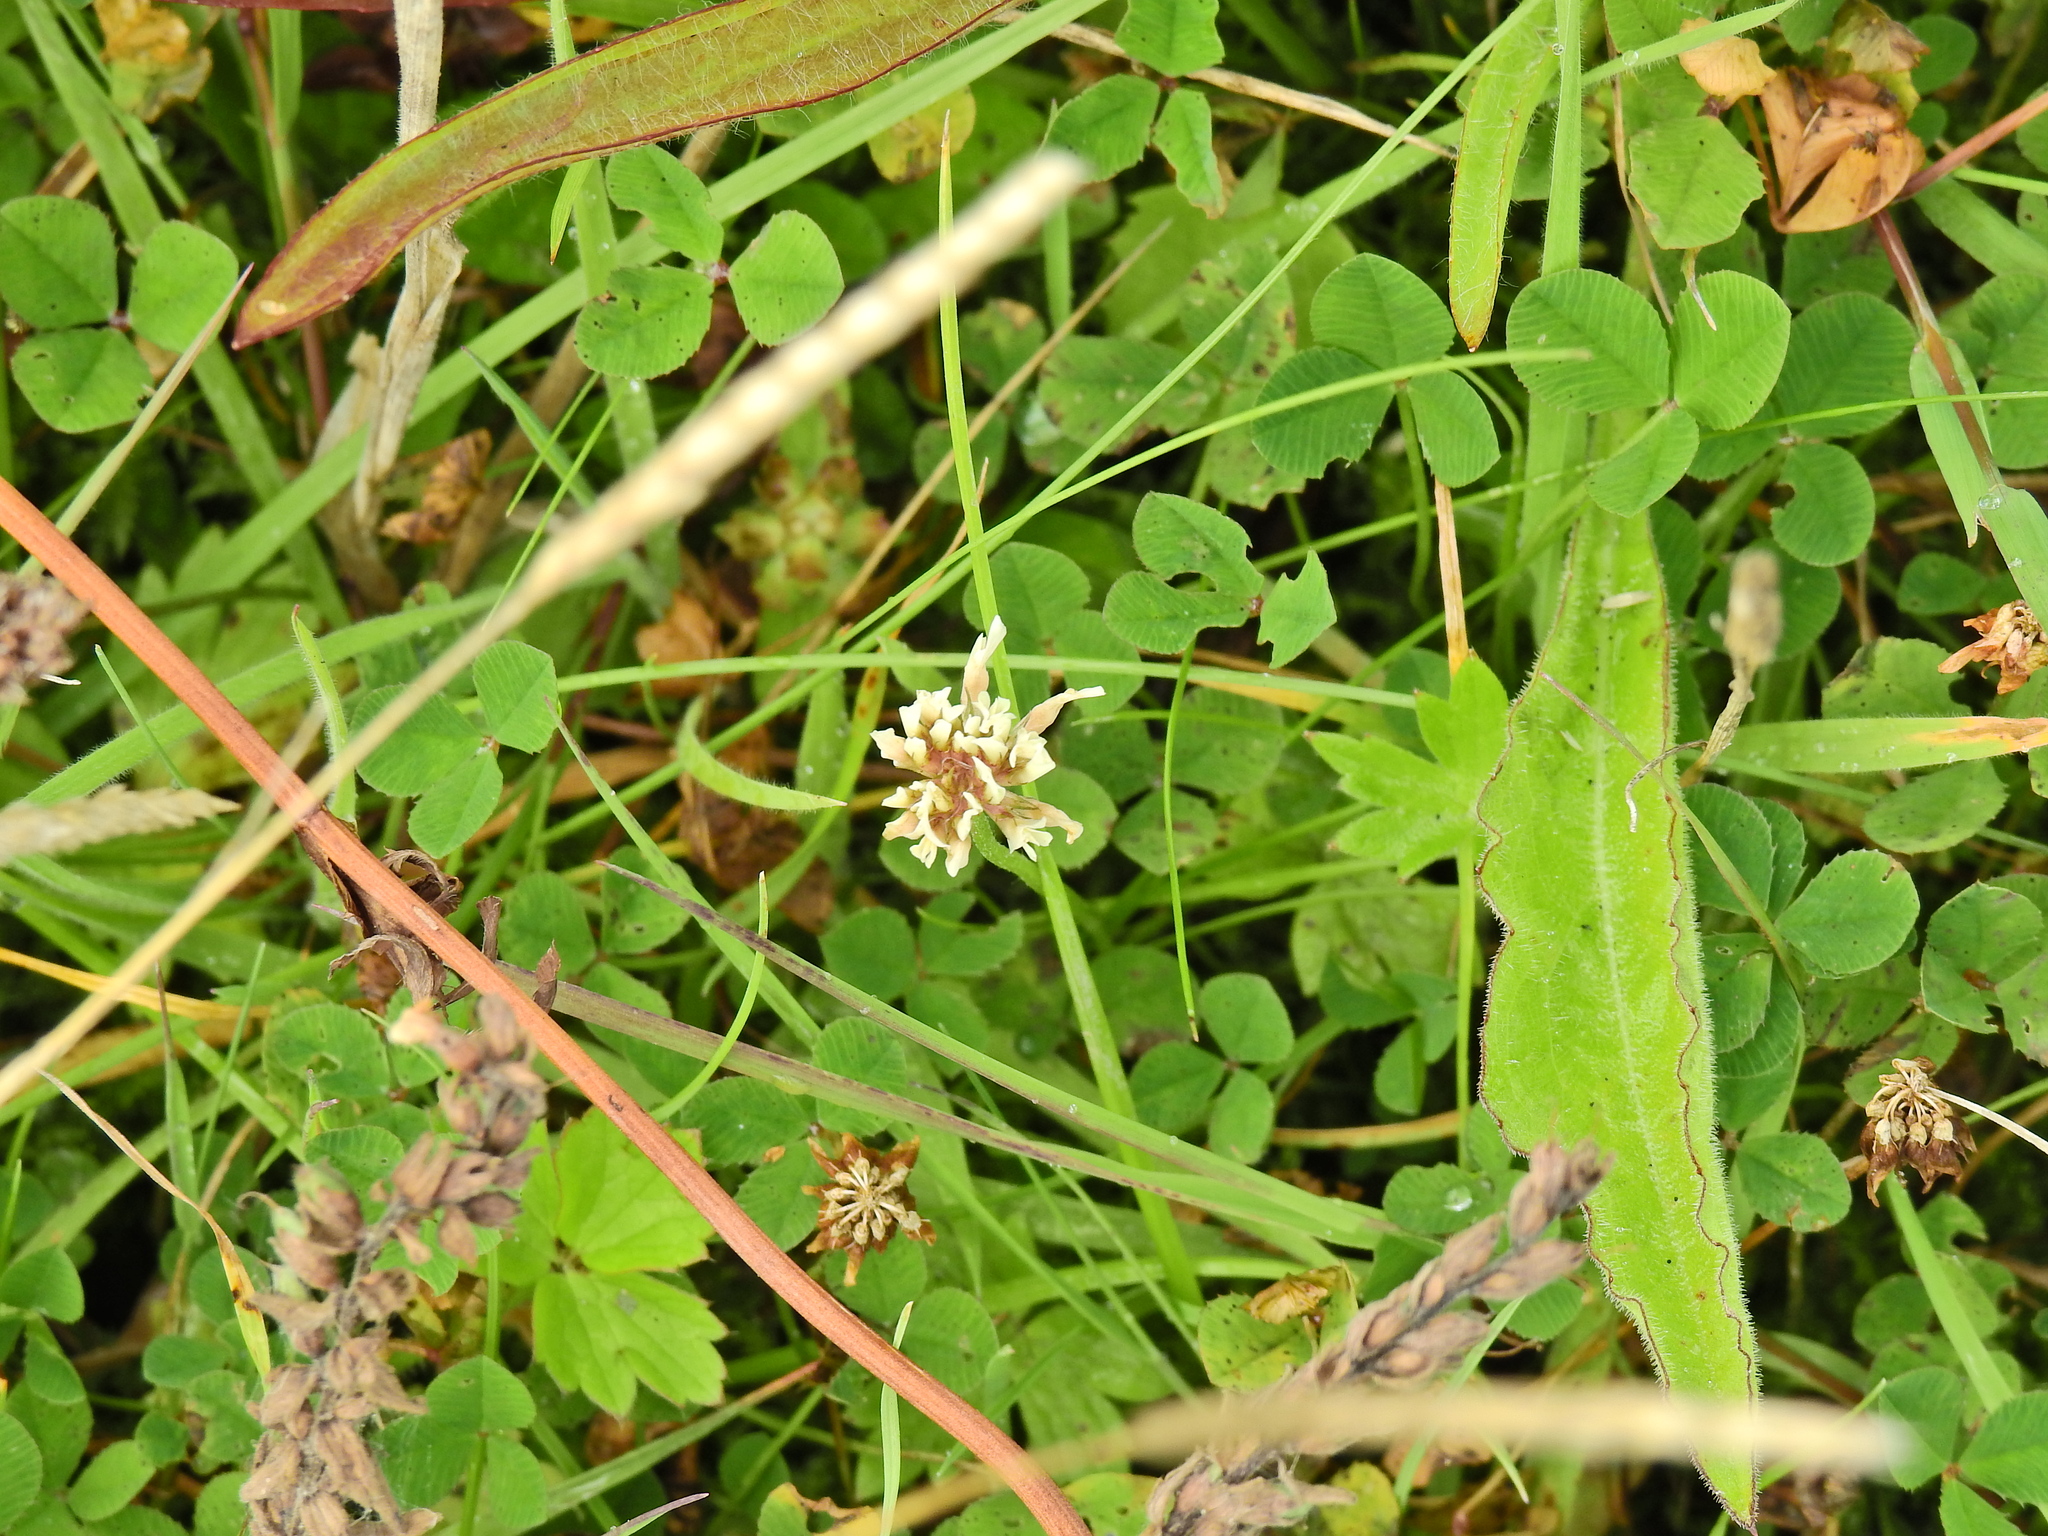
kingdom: Plantae
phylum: Tracheophyta
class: Magnoliopsida
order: Fabales
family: Fabaceae
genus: Trifolium
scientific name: Trifolium repens
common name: White clover
